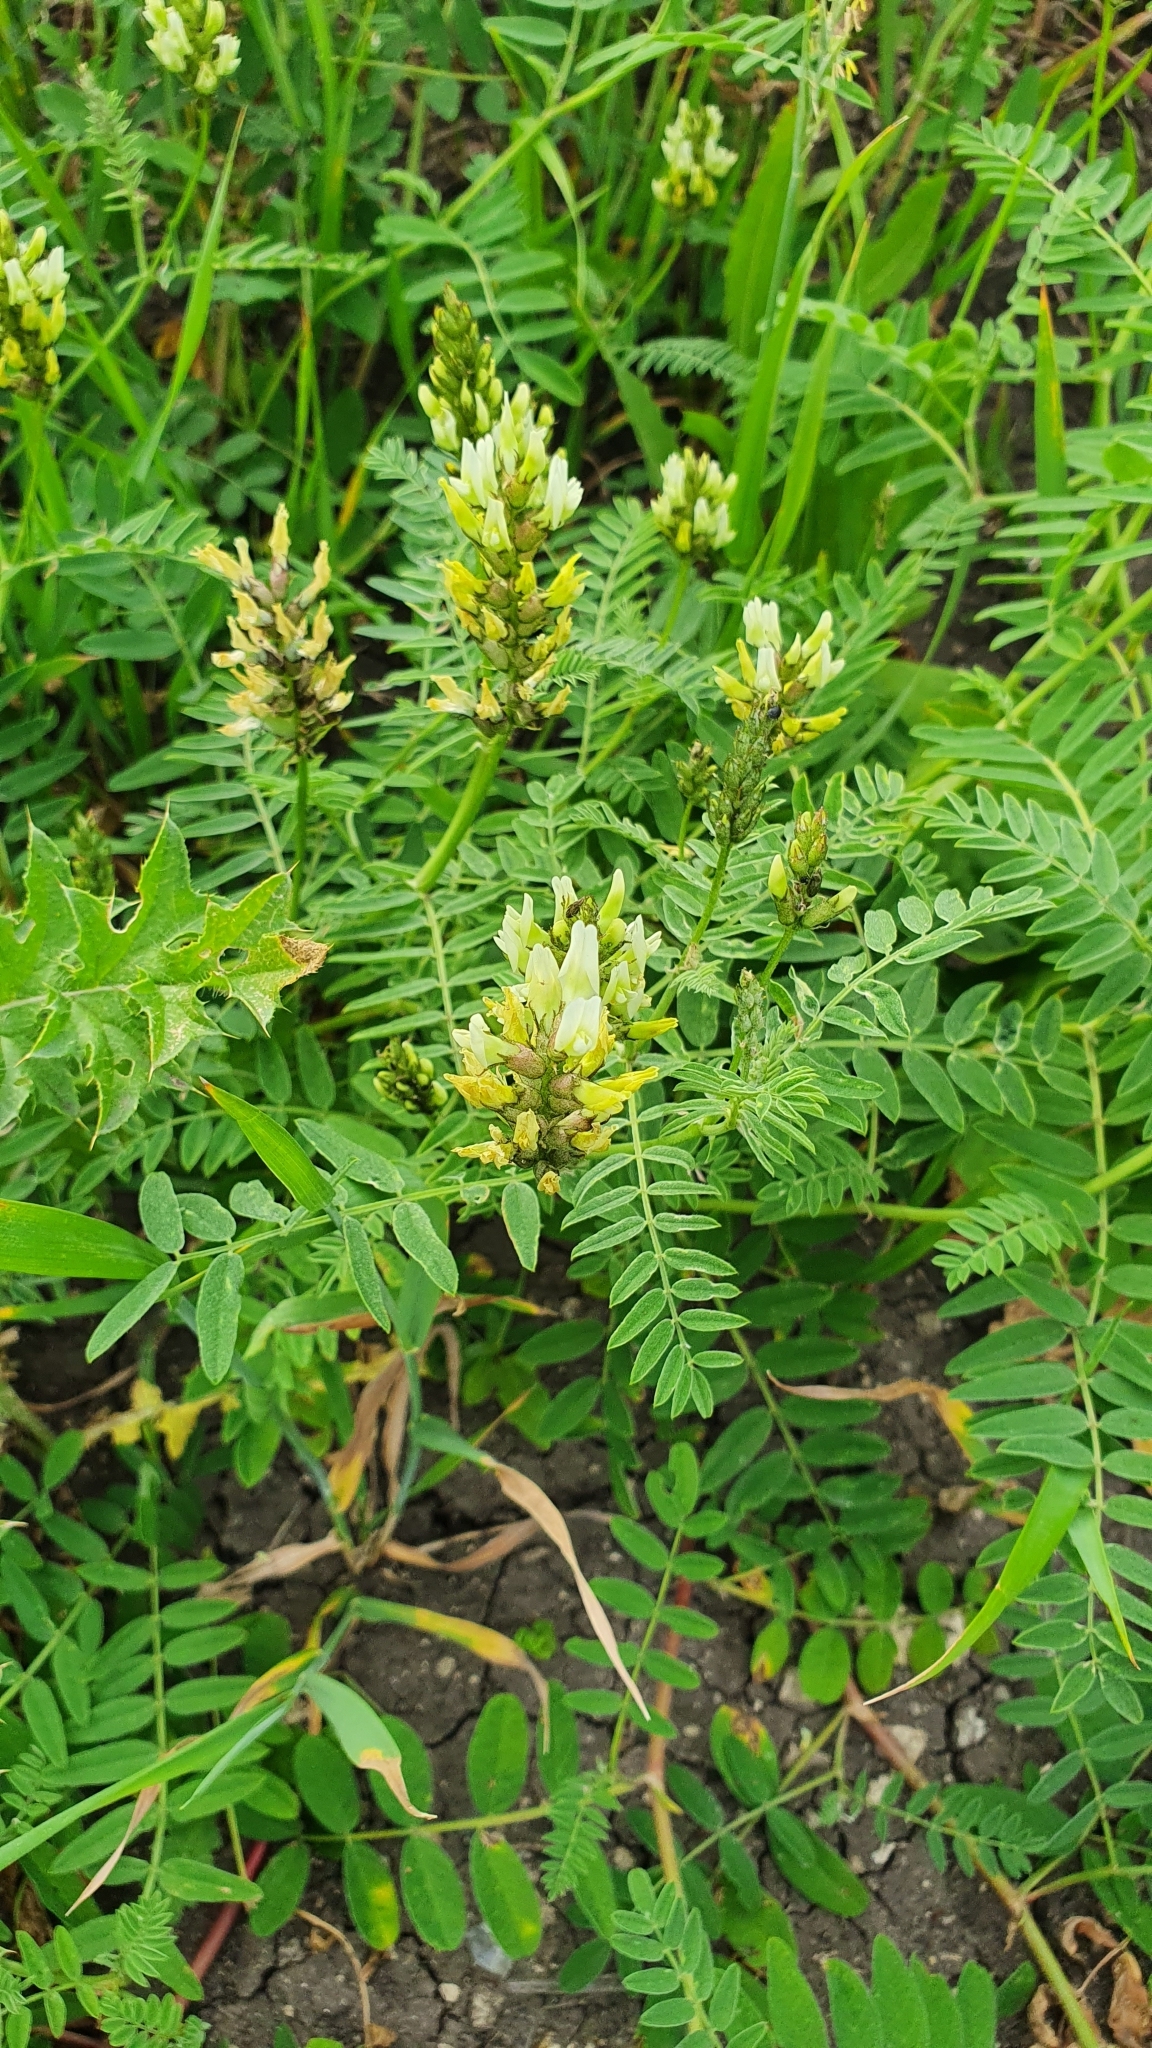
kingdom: Plantae
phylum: Tracheophyta
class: Magnoliopsida
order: Fabales
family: Fabaceae
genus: Astragalus
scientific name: Astragalus cicer
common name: Chick-pea milk-vetch
